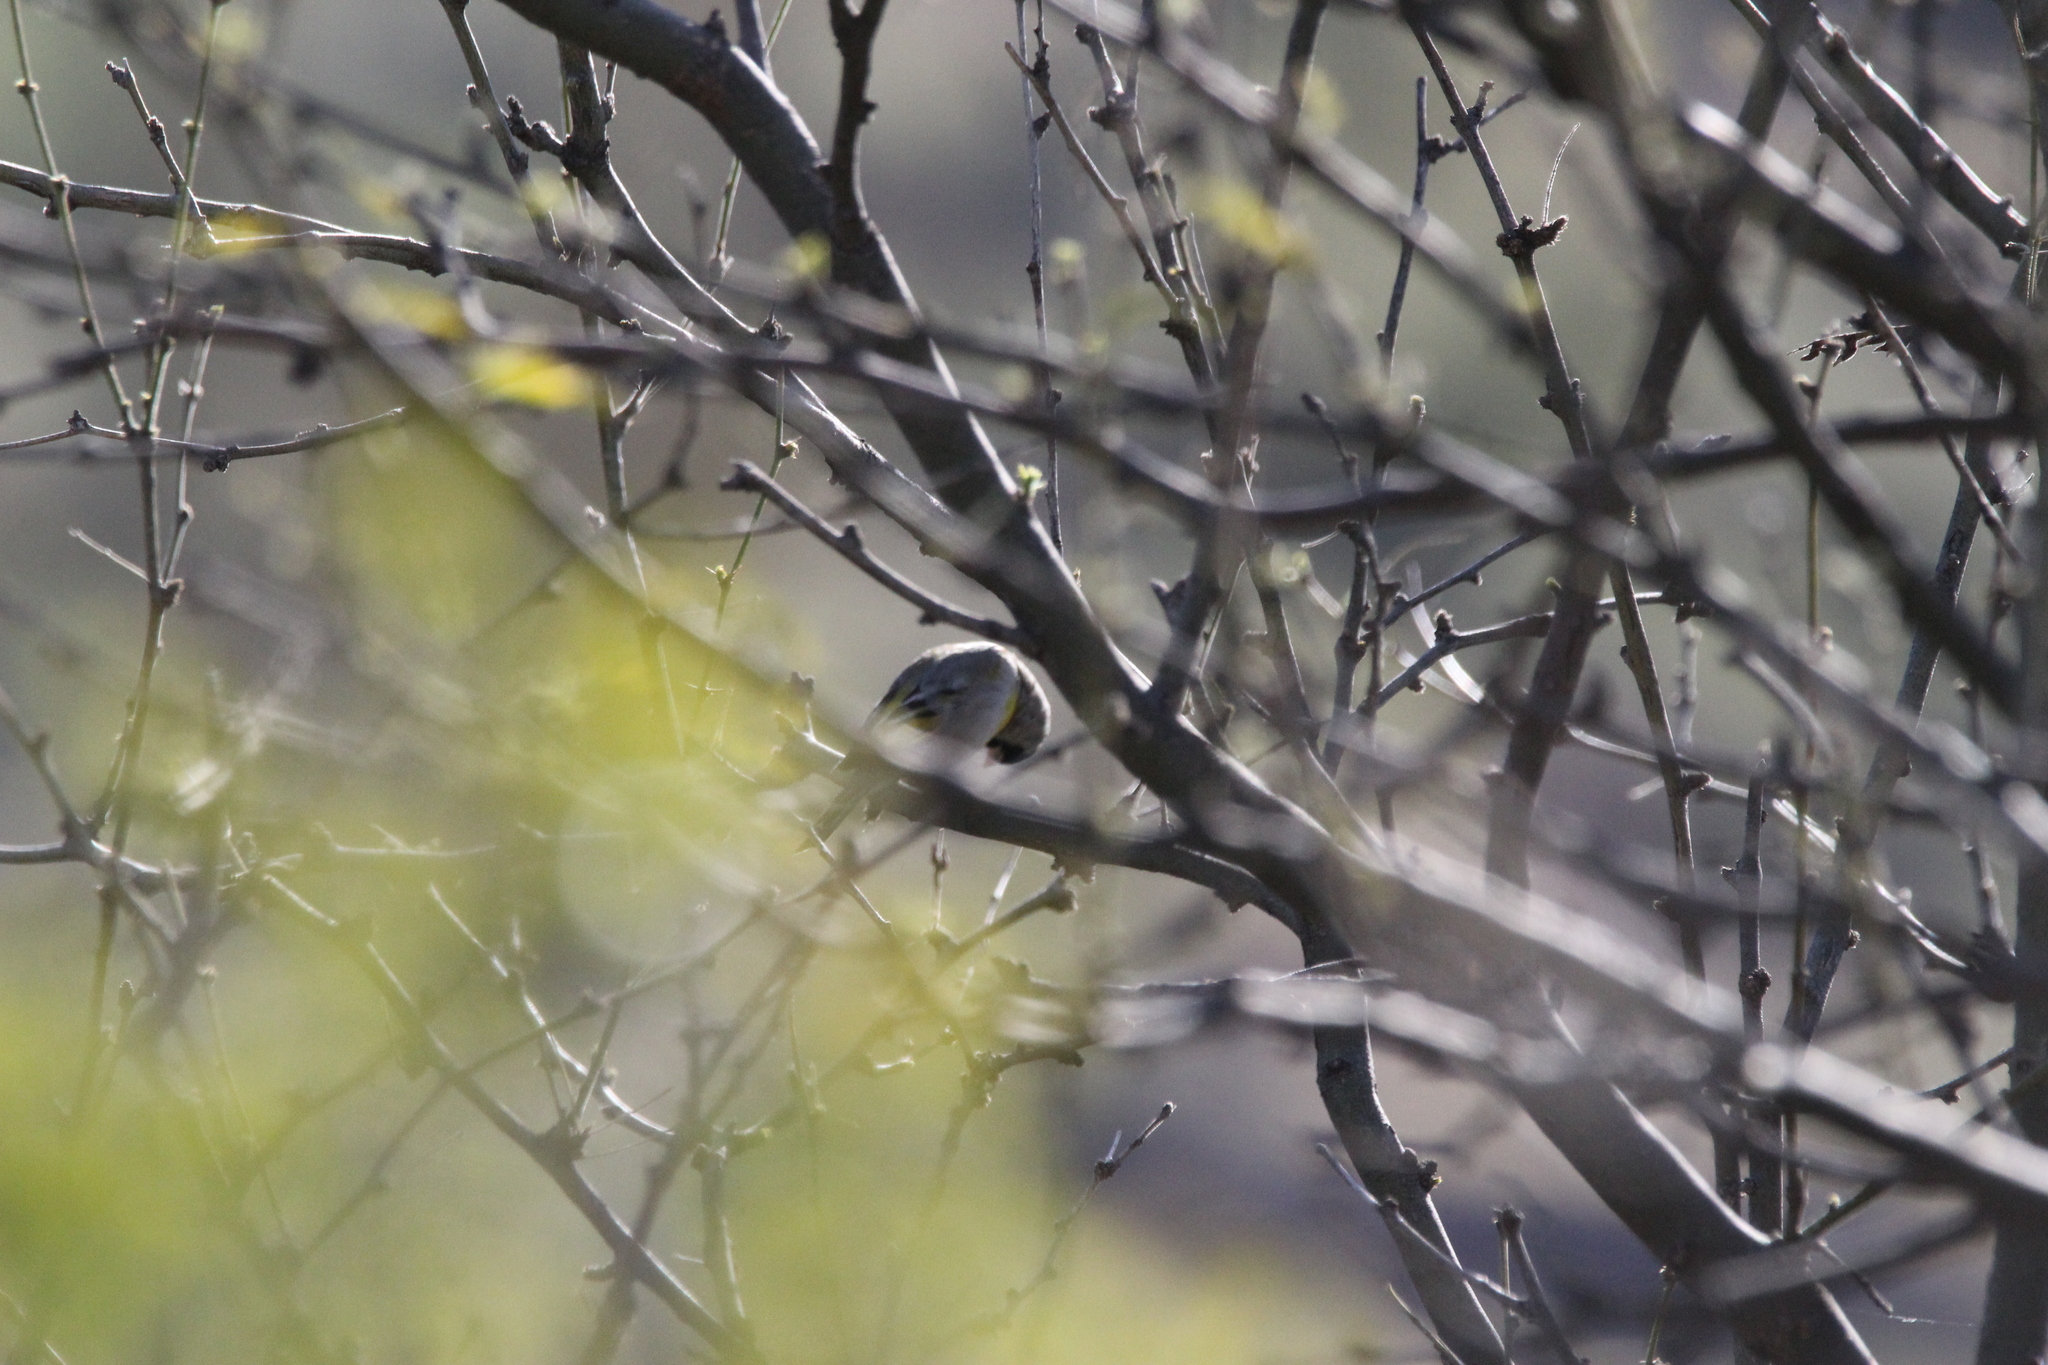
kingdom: Animalia
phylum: Chordata
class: Aves
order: Passeriformes
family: Fringillidae
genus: Spinus
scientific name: Spinus lawrencei
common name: Lawrence's goldfinch
